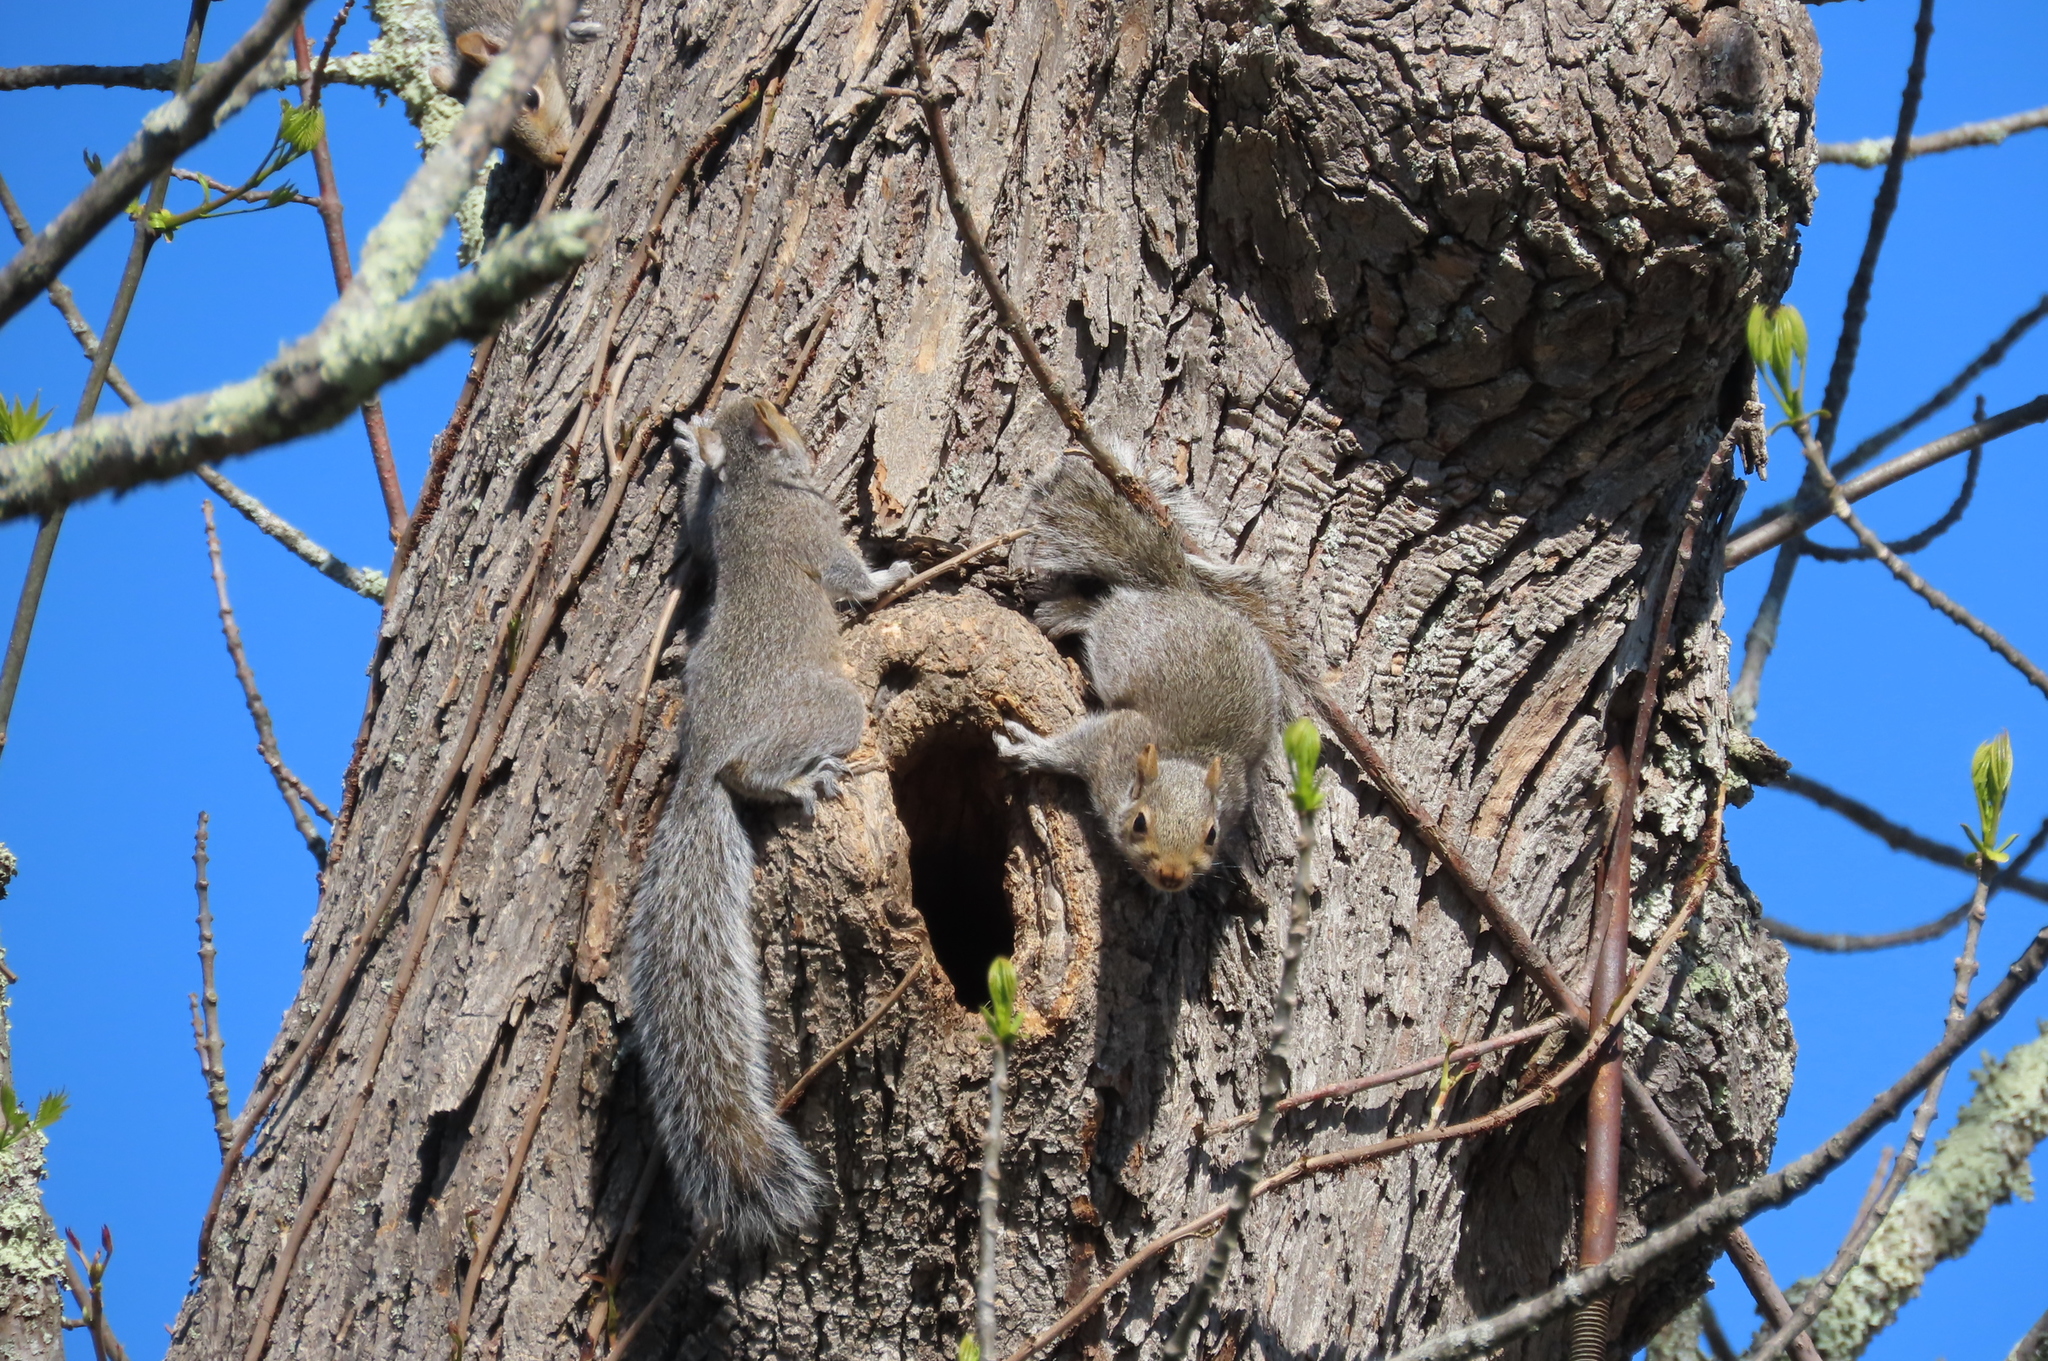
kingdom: Animalia
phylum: Chordata
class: Mammalia
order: Rodentia
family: Sciuridae
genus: Sciurus
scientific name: Sciurus carolinensis
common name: Eastern gray squirrel
